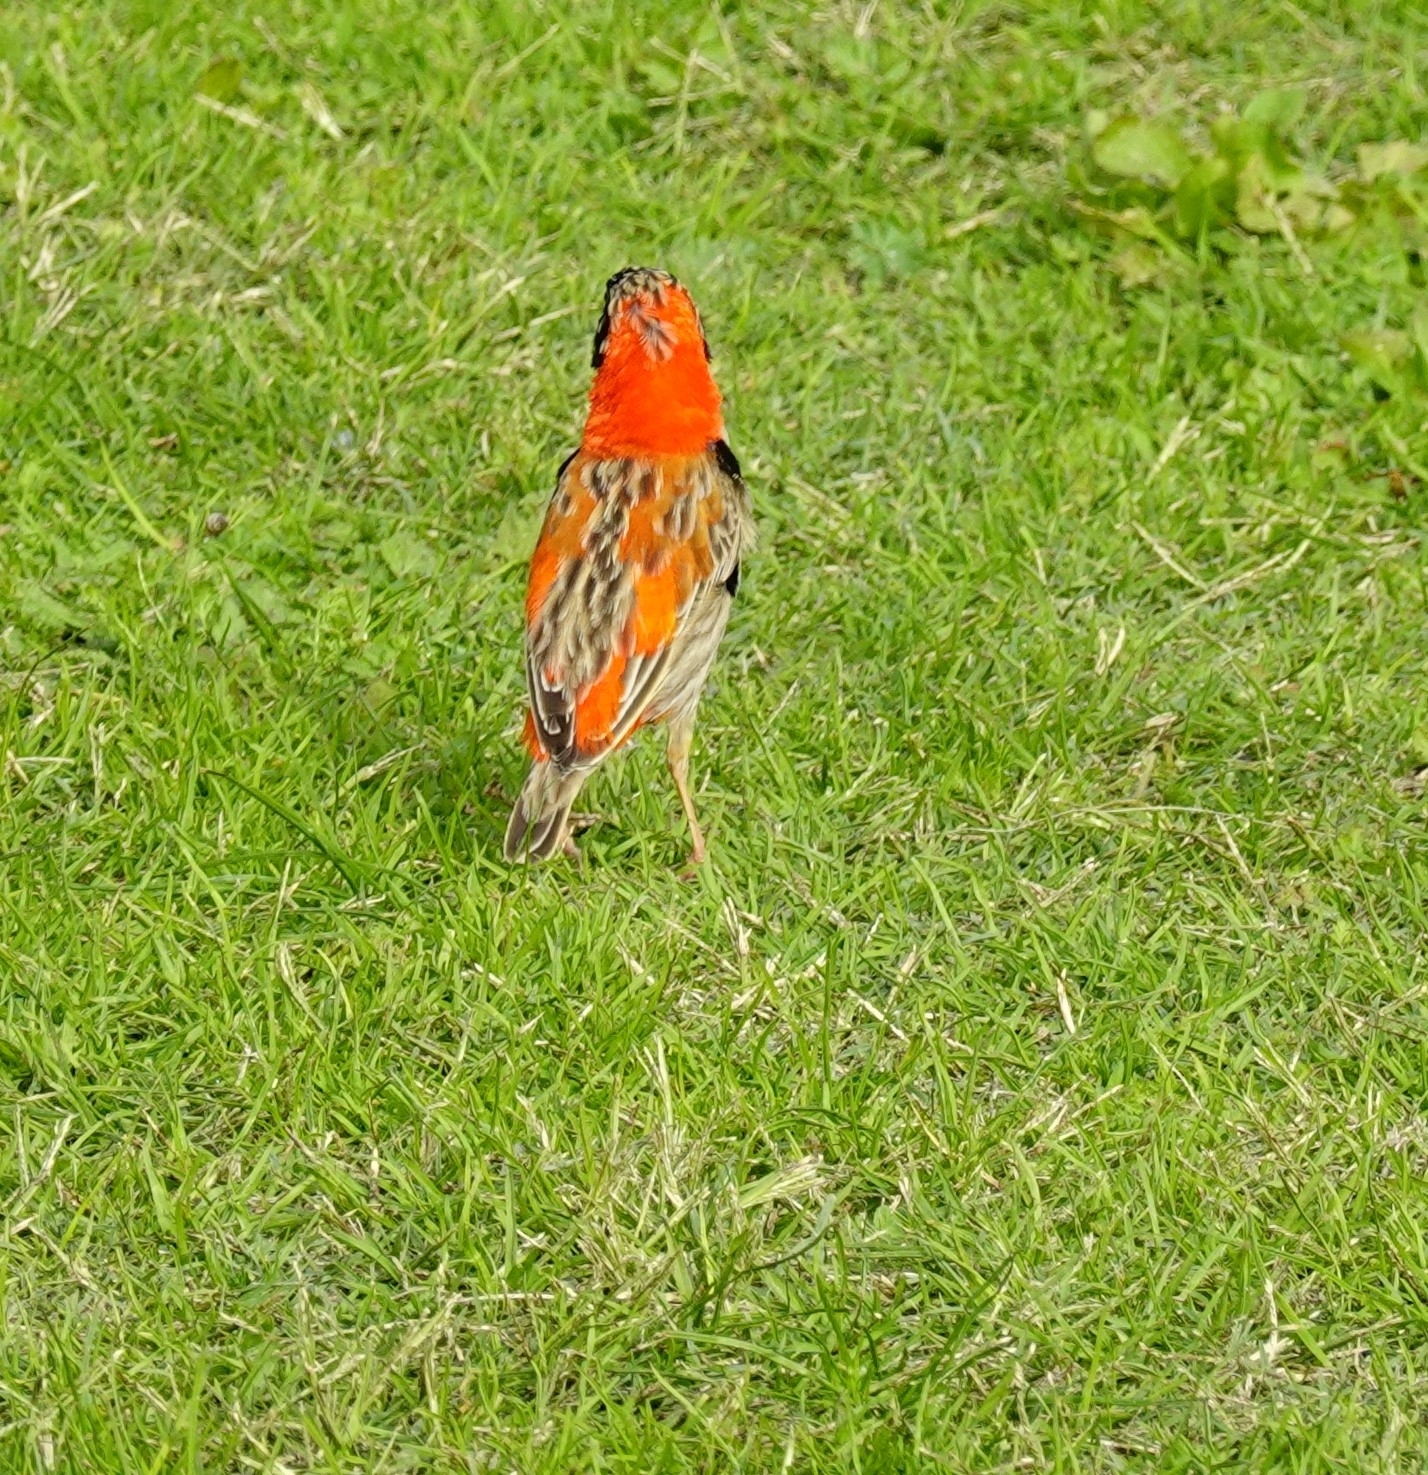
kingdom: Animalia
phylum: Chordata
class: Aves
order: Passeriformes
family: Ploceidae
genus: Euplectes
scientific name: Euplectes orix
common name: Southern red bishop
